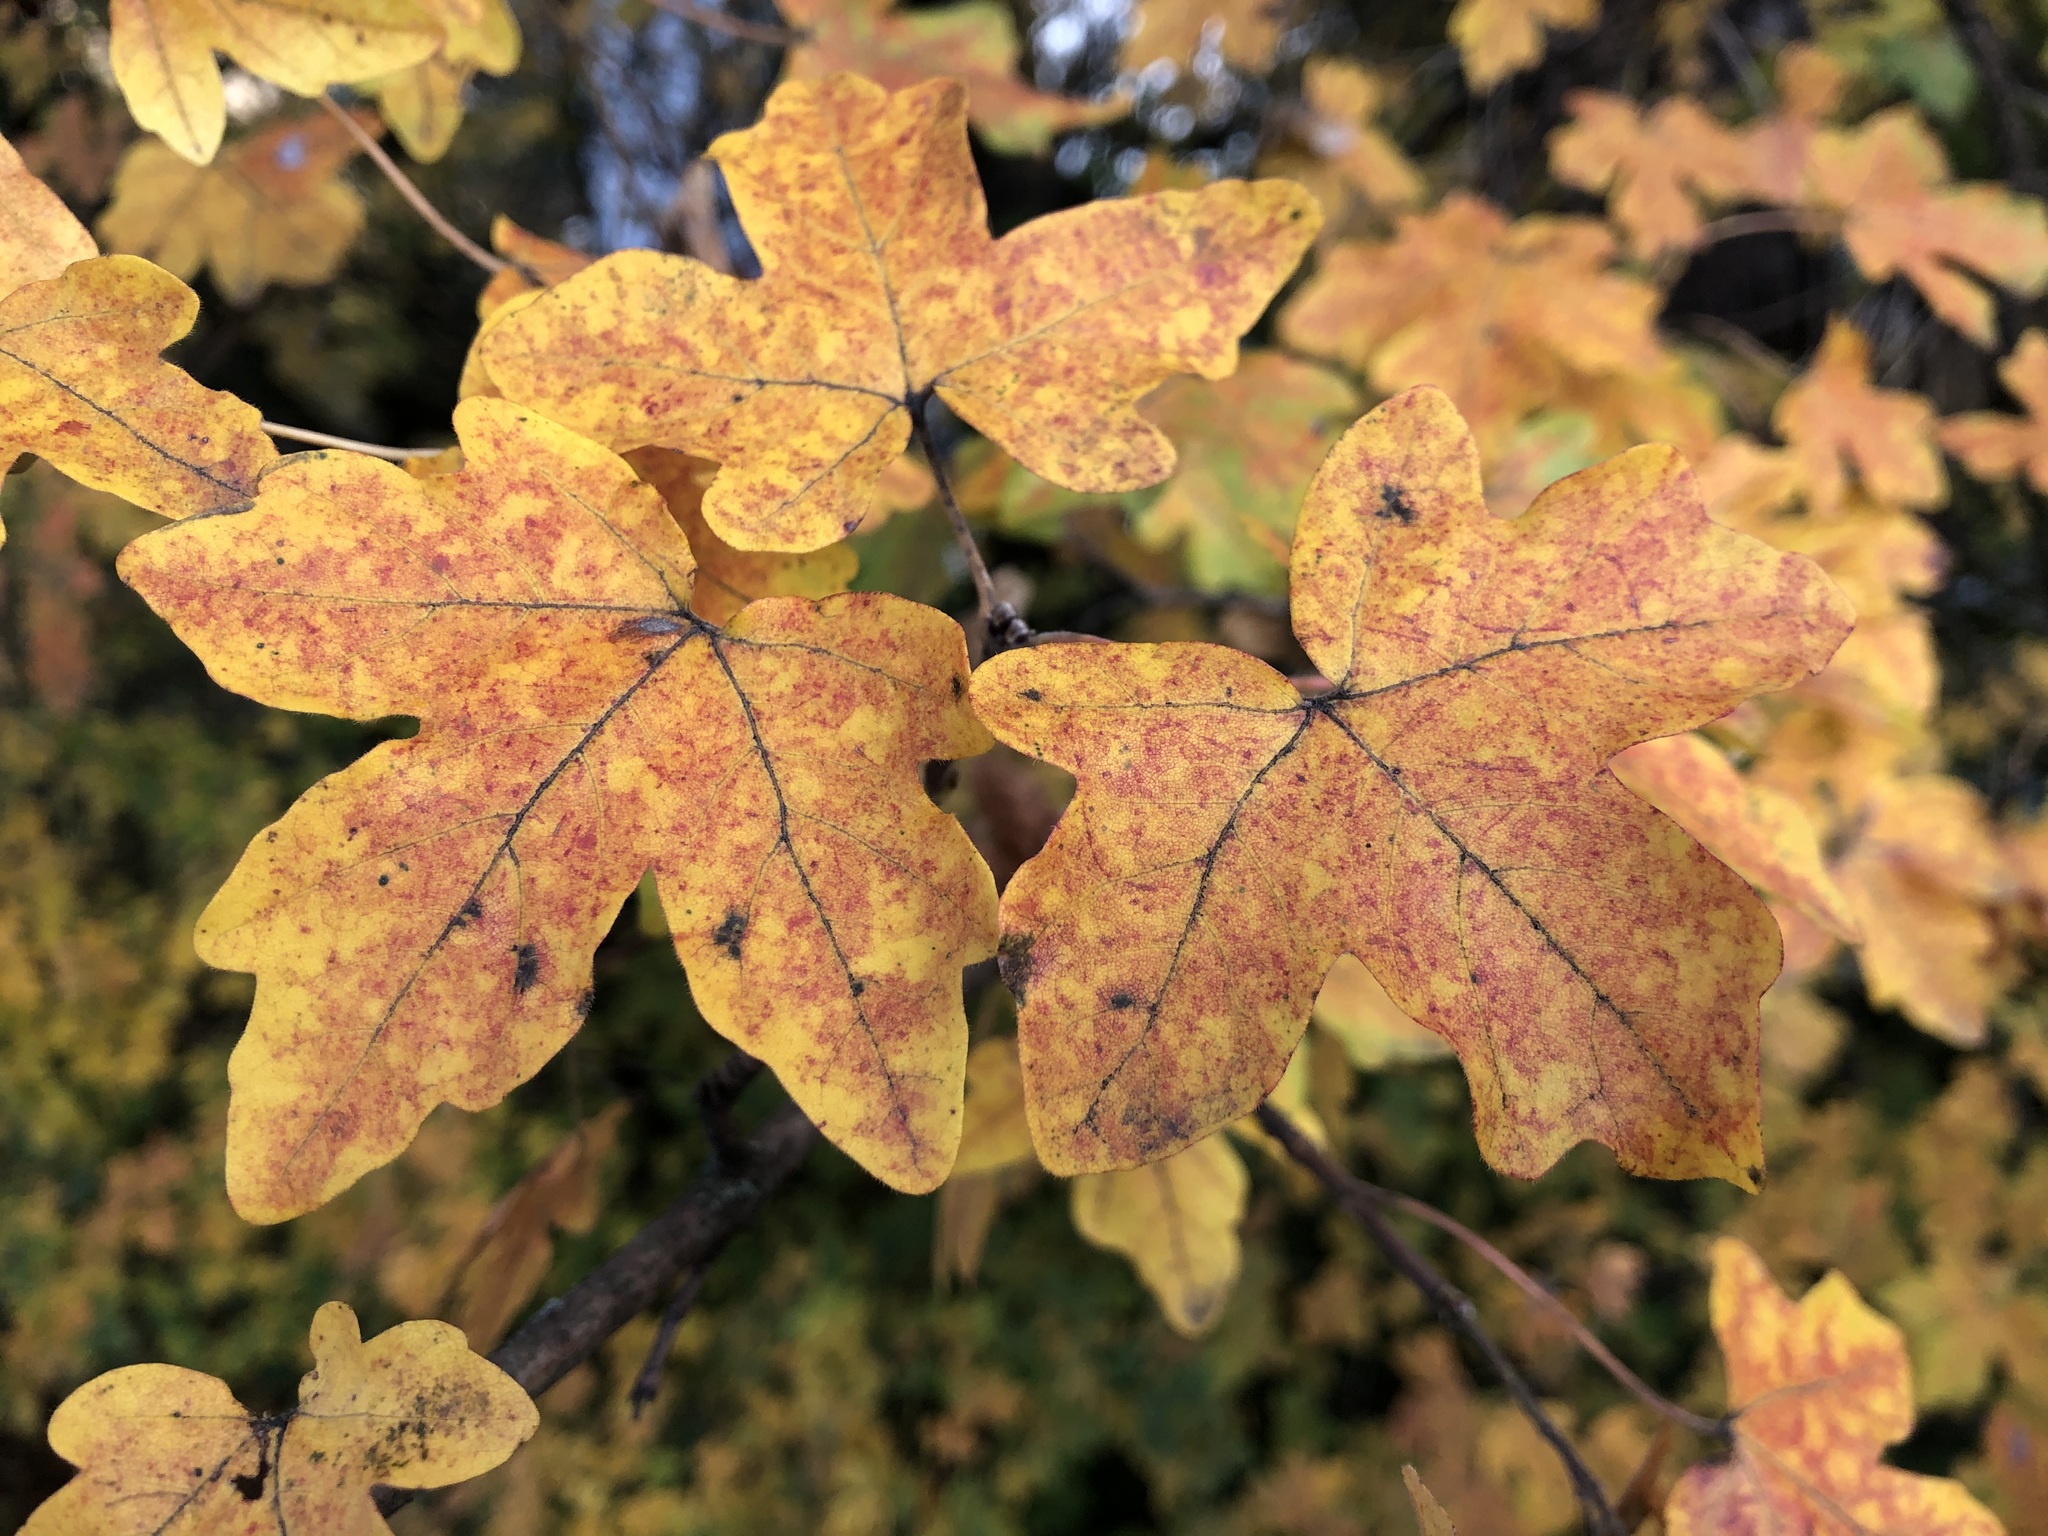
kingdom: Plantae
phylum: Tracheophyta
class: Magnoliopsida
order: Sapindales
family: Sapindaceae
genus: Acer
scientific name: Acer campestre
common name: Field maple
